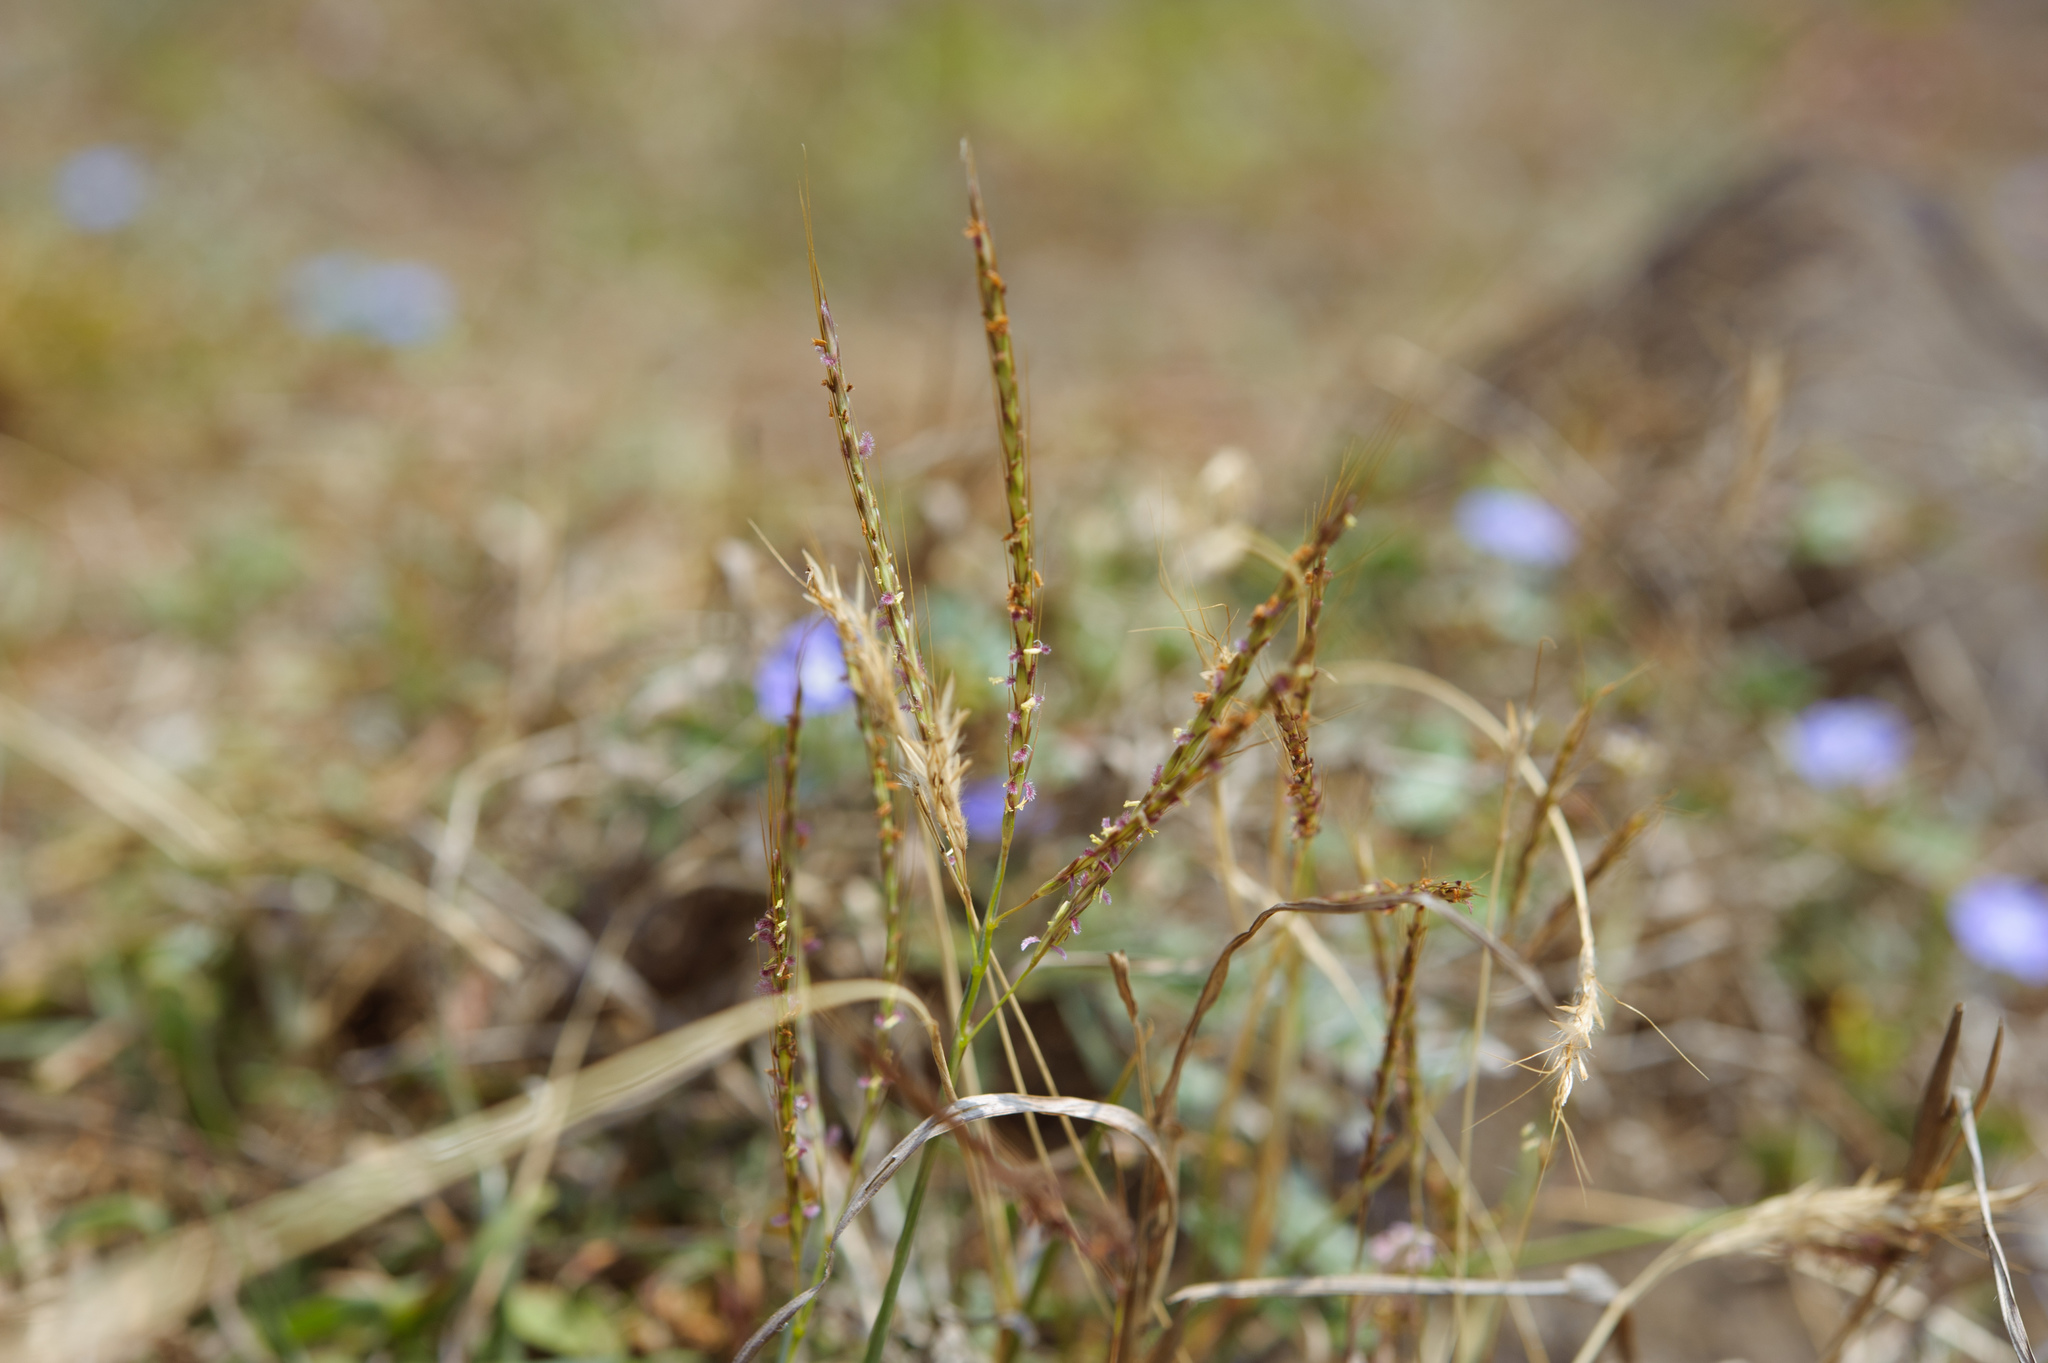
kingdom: Plantae
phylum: Tracheophyta
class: Liliopsida
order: Poales
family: Poaceae
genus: Bothriochloa
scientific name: Bothriochloa ischaemum
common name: Yellow bluestem
